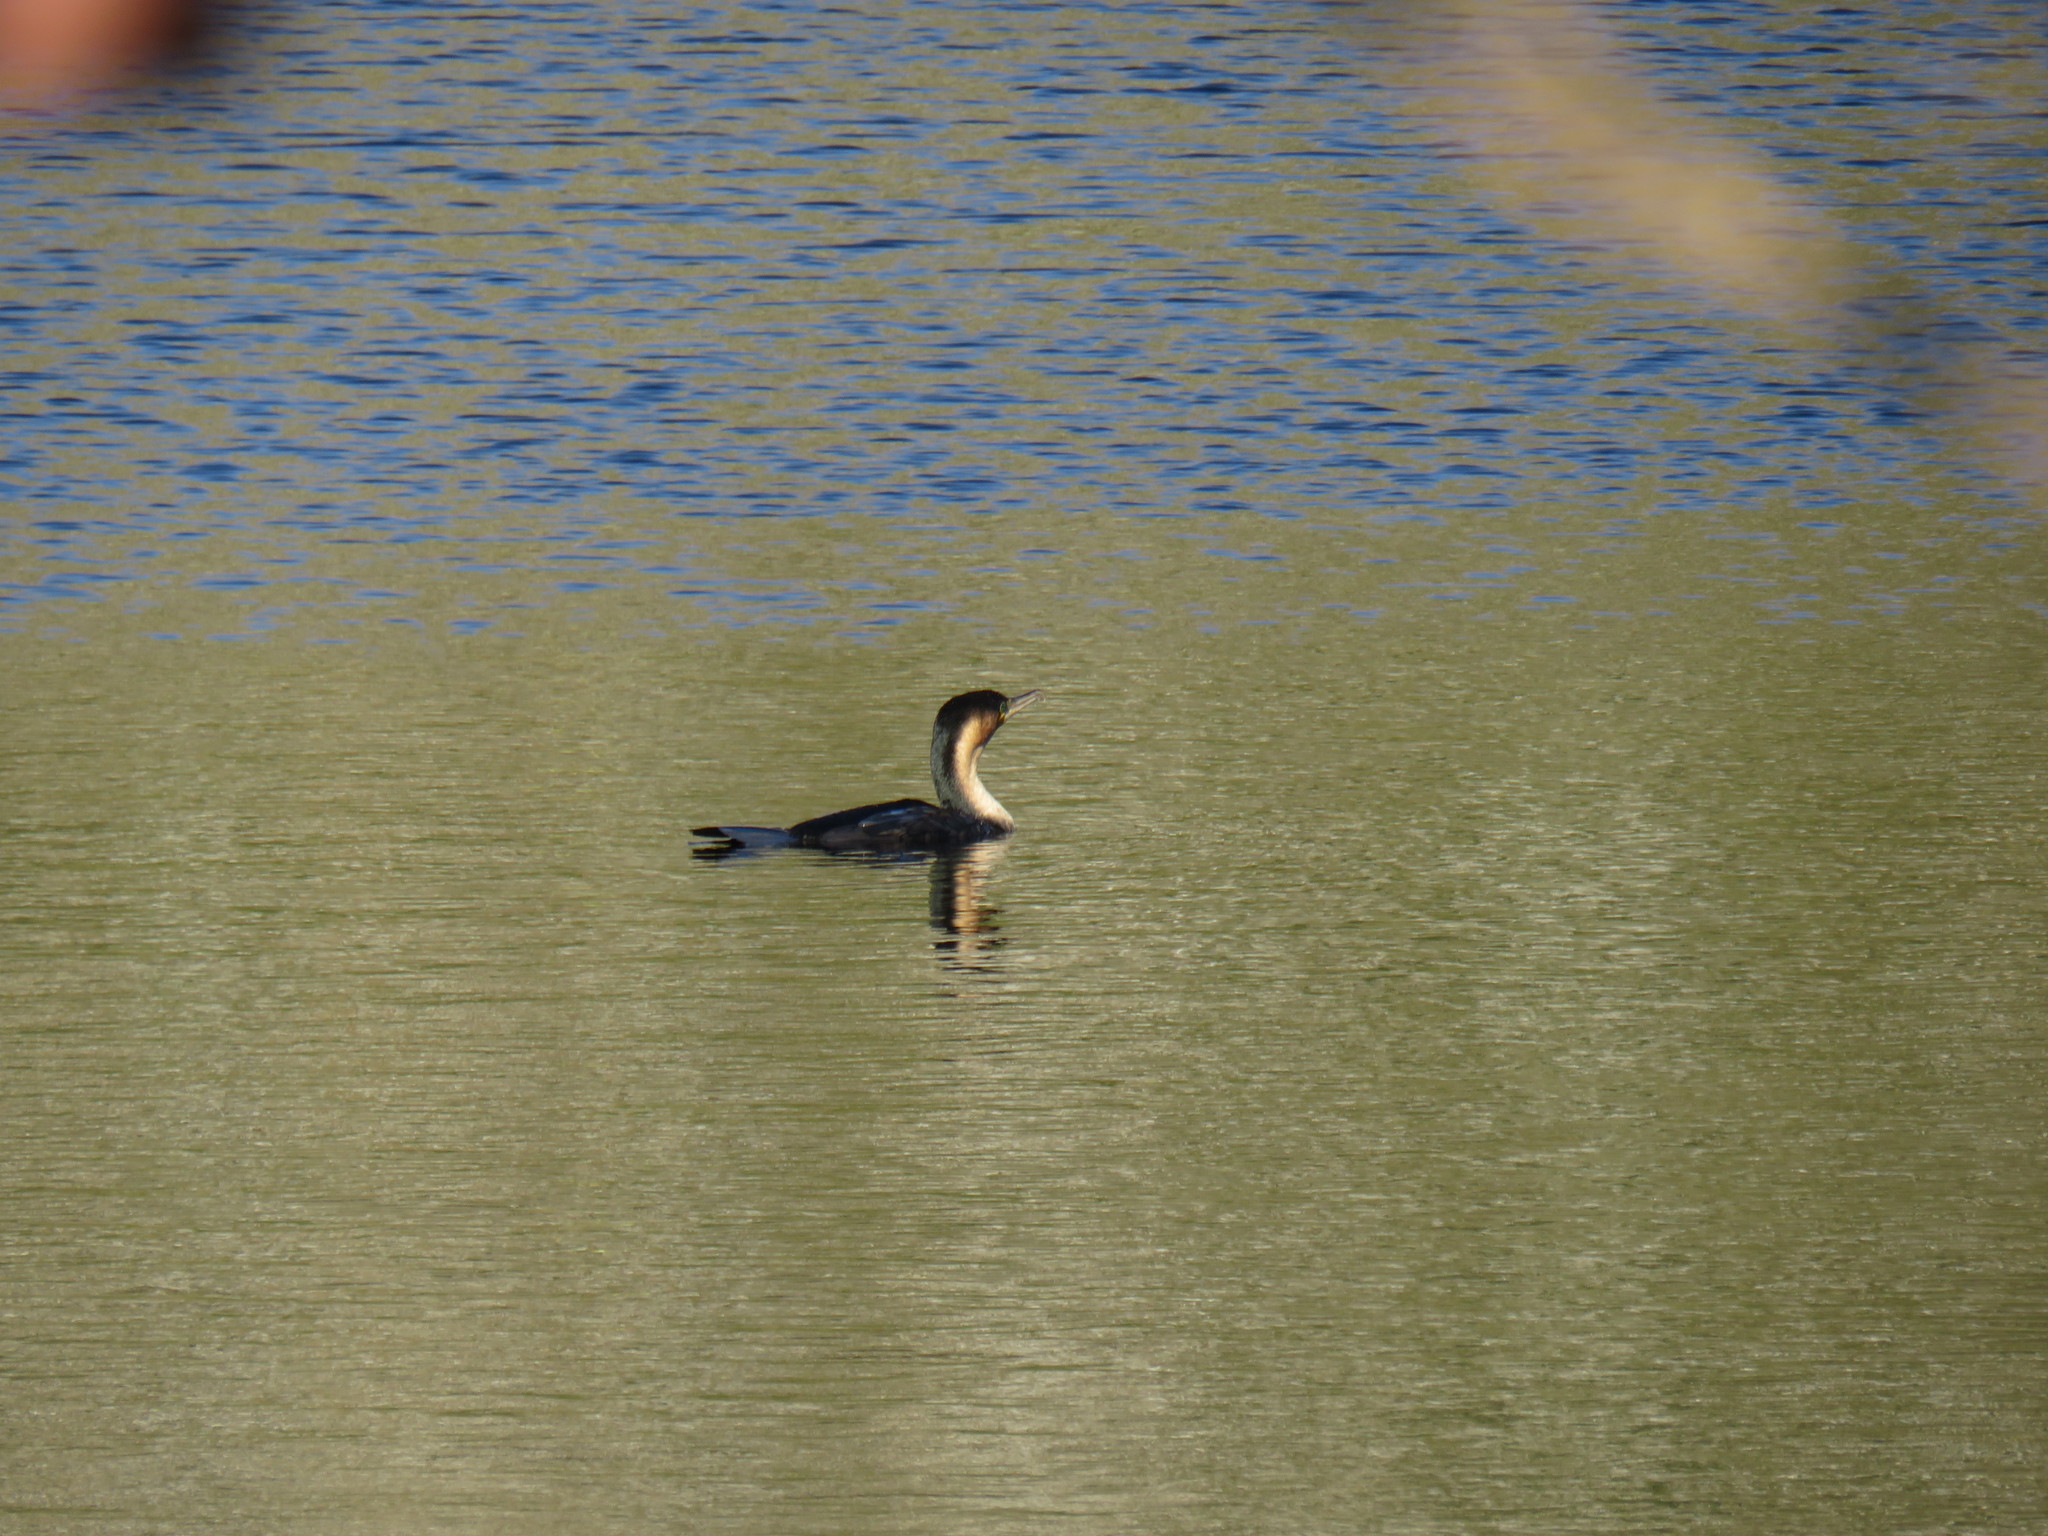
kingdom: Animalia
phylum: Chordata
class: Aves
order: Suliformes
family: Phalacrocoracidae
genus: Phalacrocorax
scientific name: Phalacrocorax carbo
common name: Great cormorant
